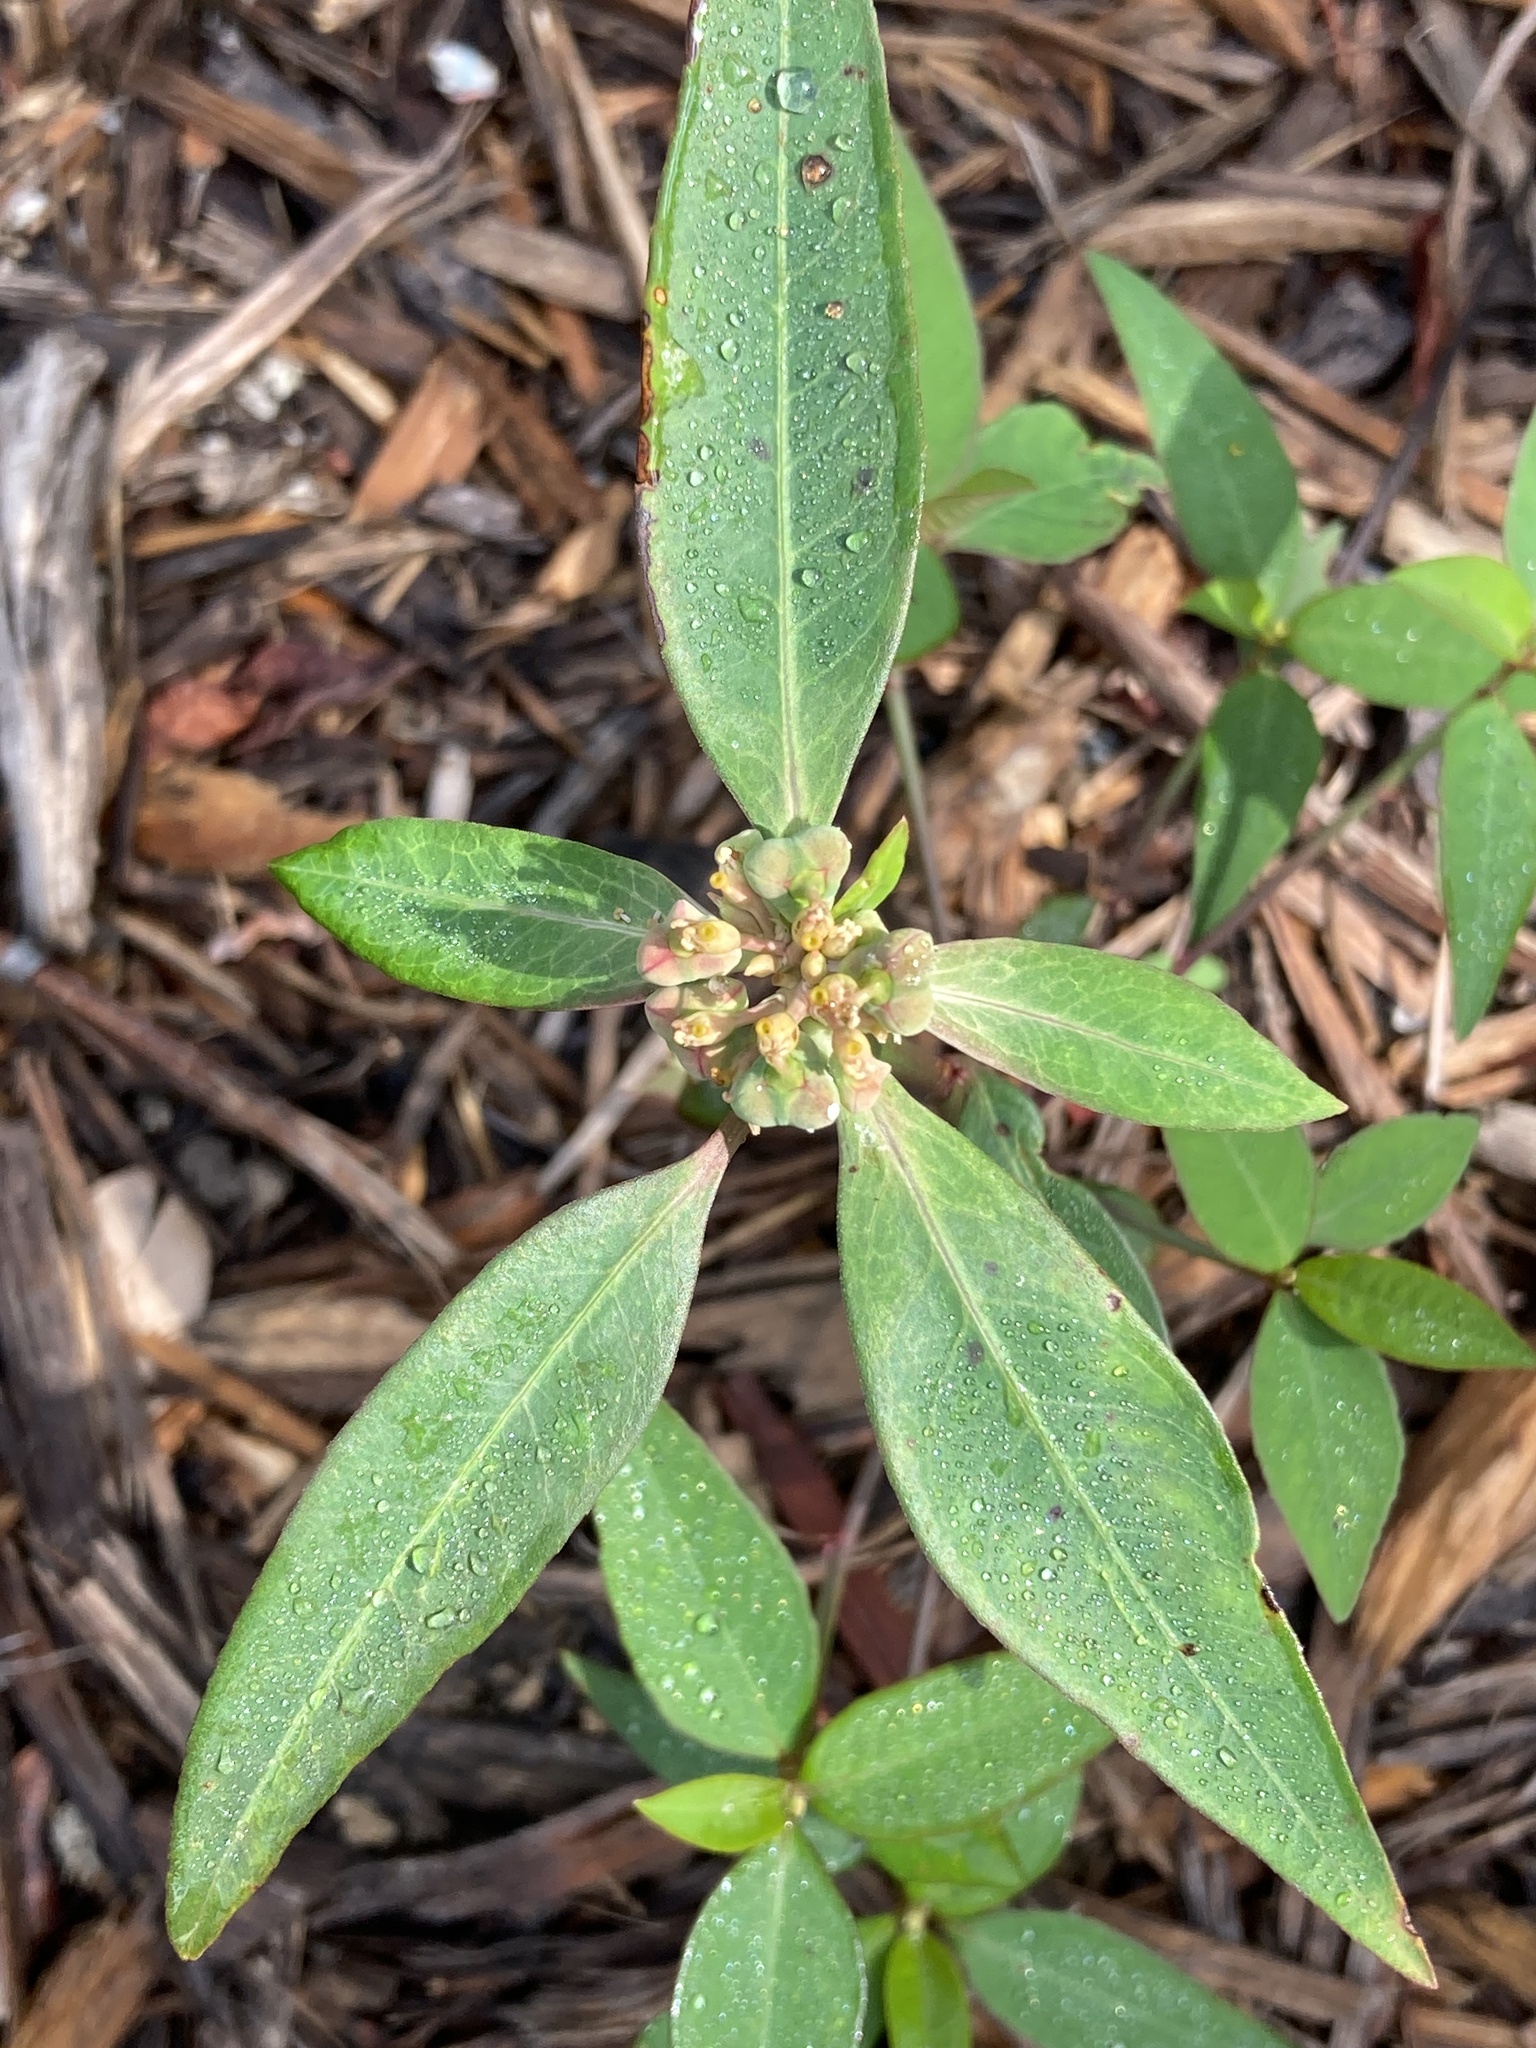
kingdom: Plantae
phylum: Tracheophyta
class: Magnoliopsida
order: Malpighiales
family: Euphorbiaceae
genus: Euphorbia
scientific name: Euphorbia heterophylla
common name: Mexican fireplant
